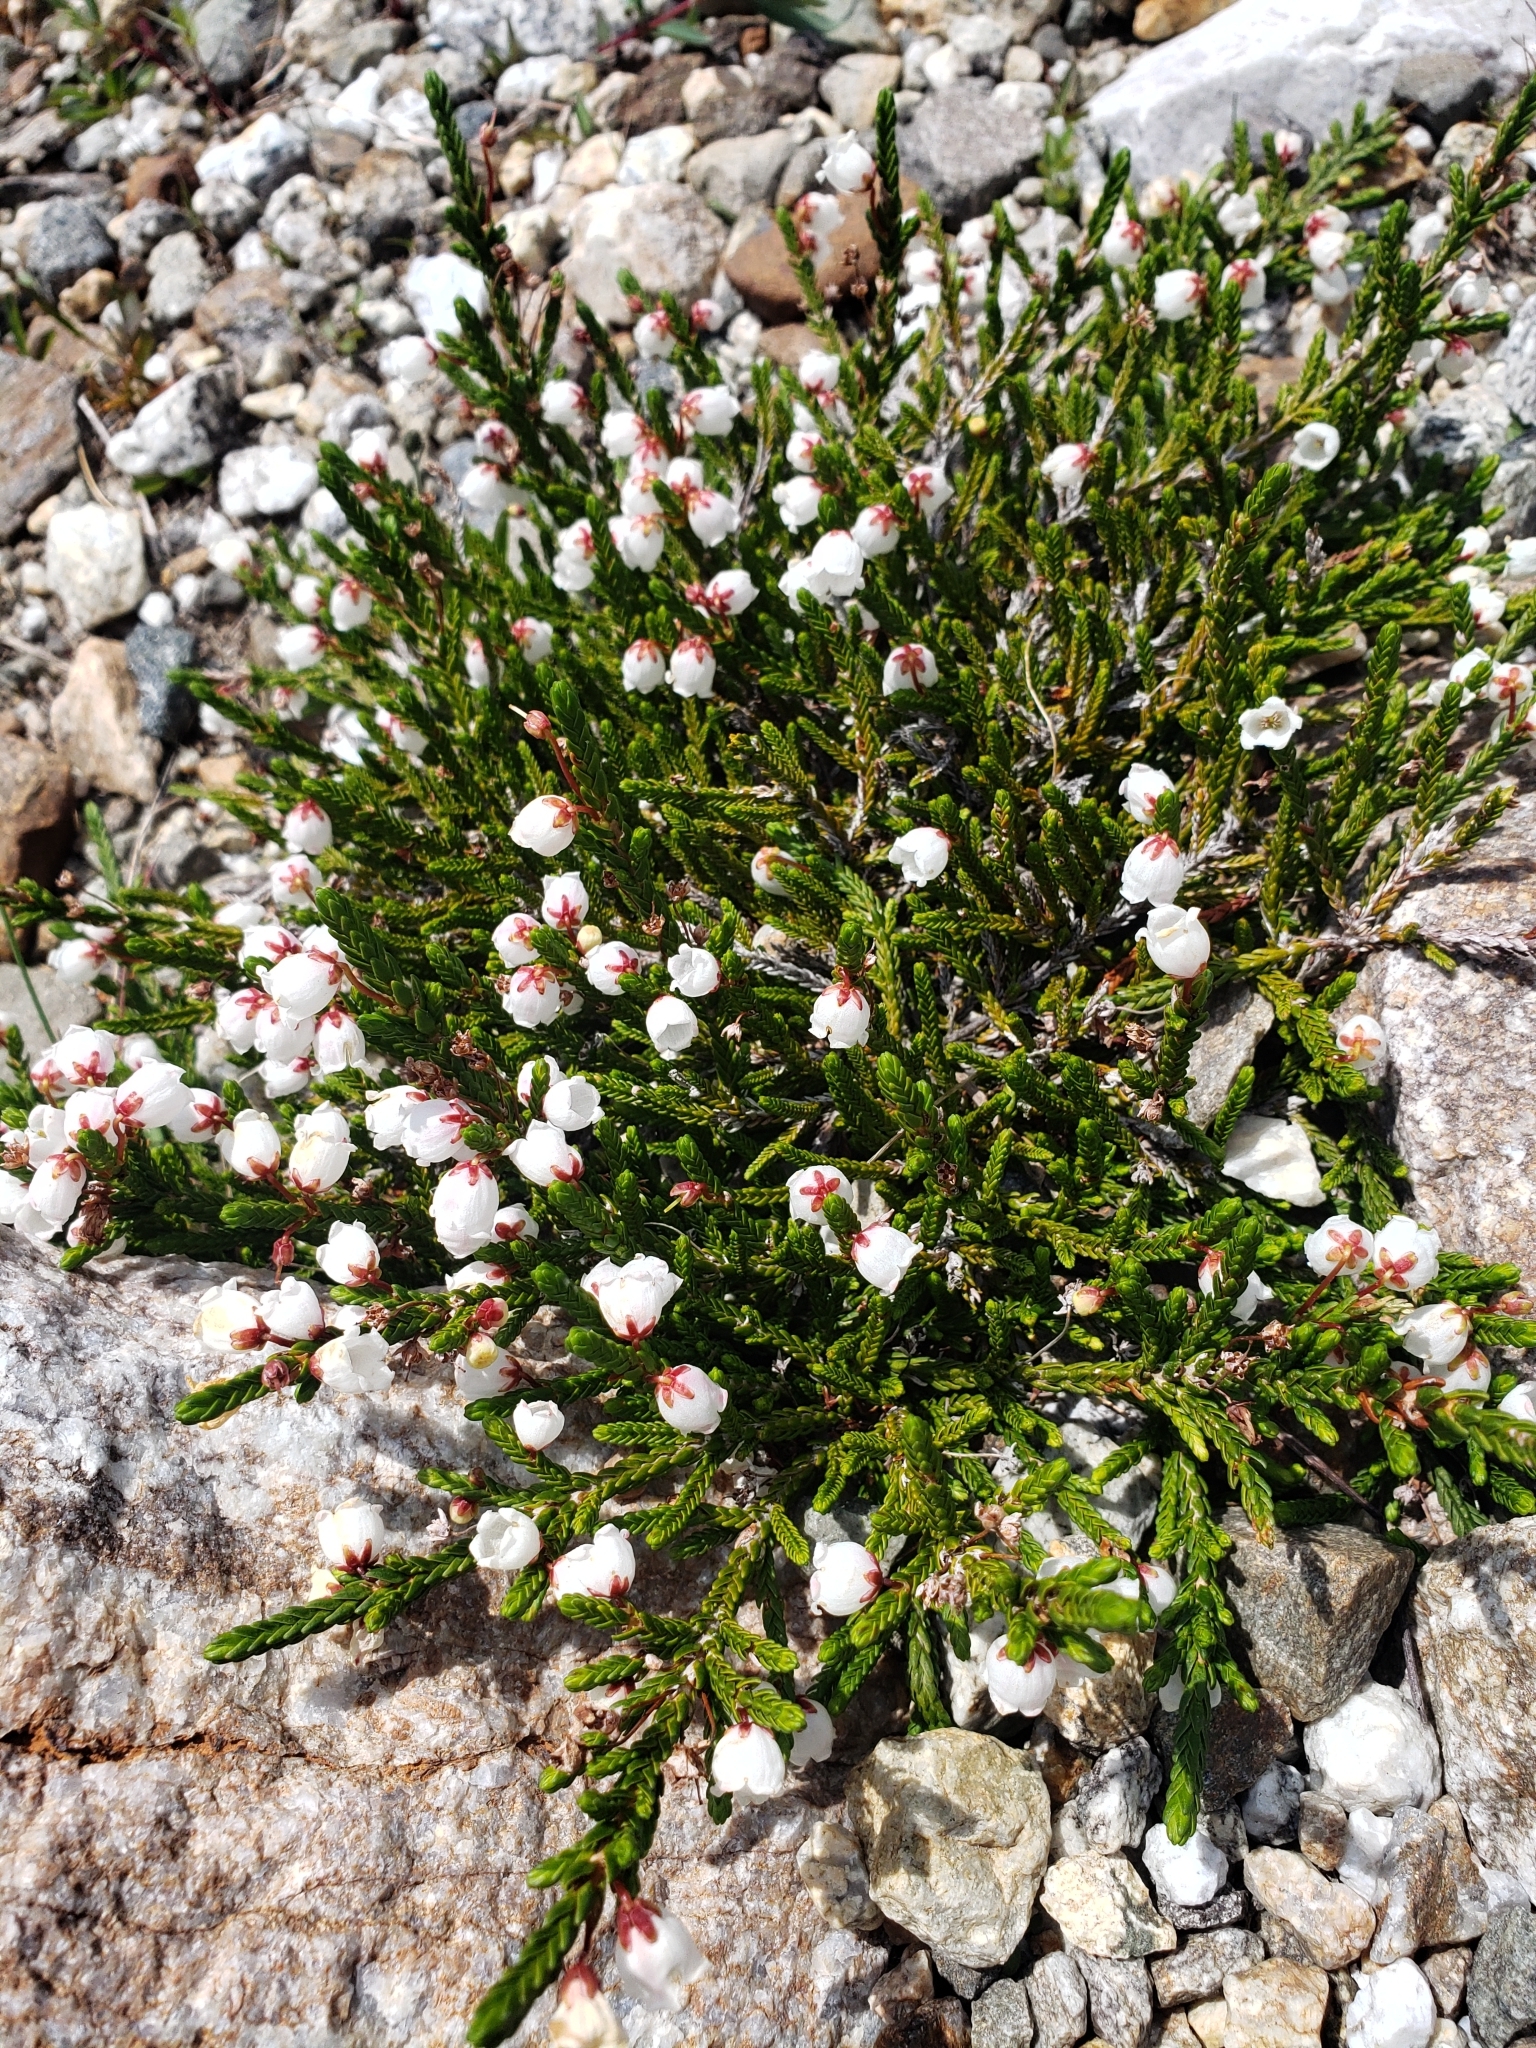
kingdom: Plantae
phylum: Tracheophyta
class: Magnoliopsida
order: Ericales
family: Ericaceae
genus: Cassiope
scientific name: Cassiope mertensiana
